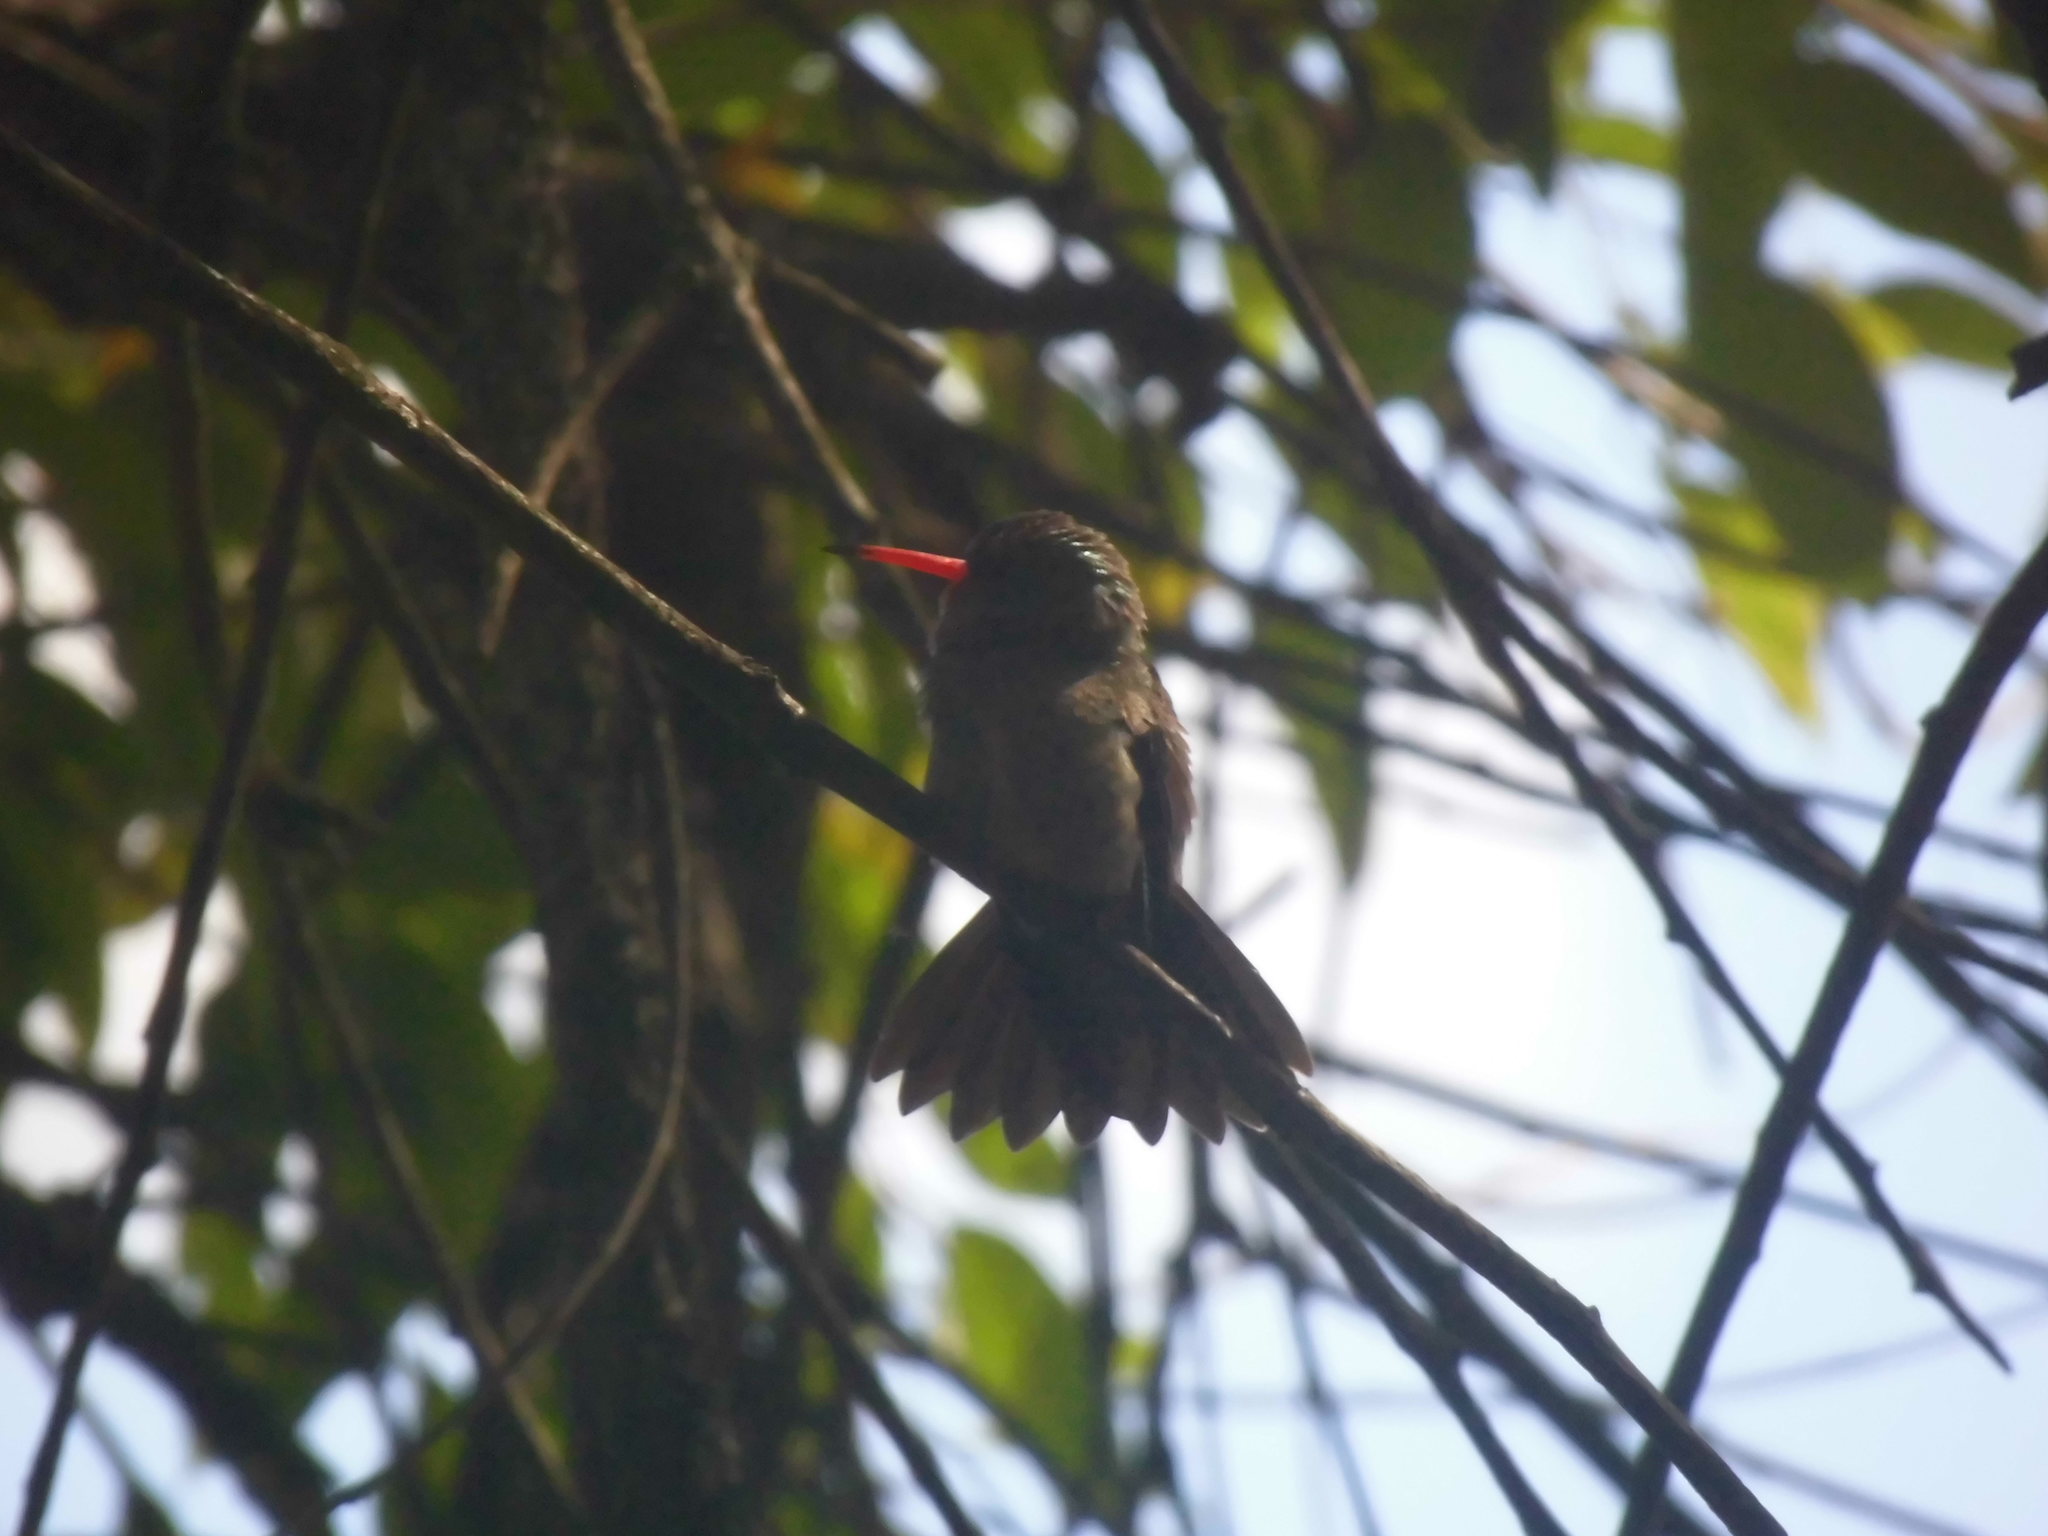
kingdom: Animalia
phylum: Chordata
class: Aves
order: Apodiformes
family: Trochilidae
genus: Hylocharis
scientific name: Hylocharis chrysura
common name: Gilded sapphire
